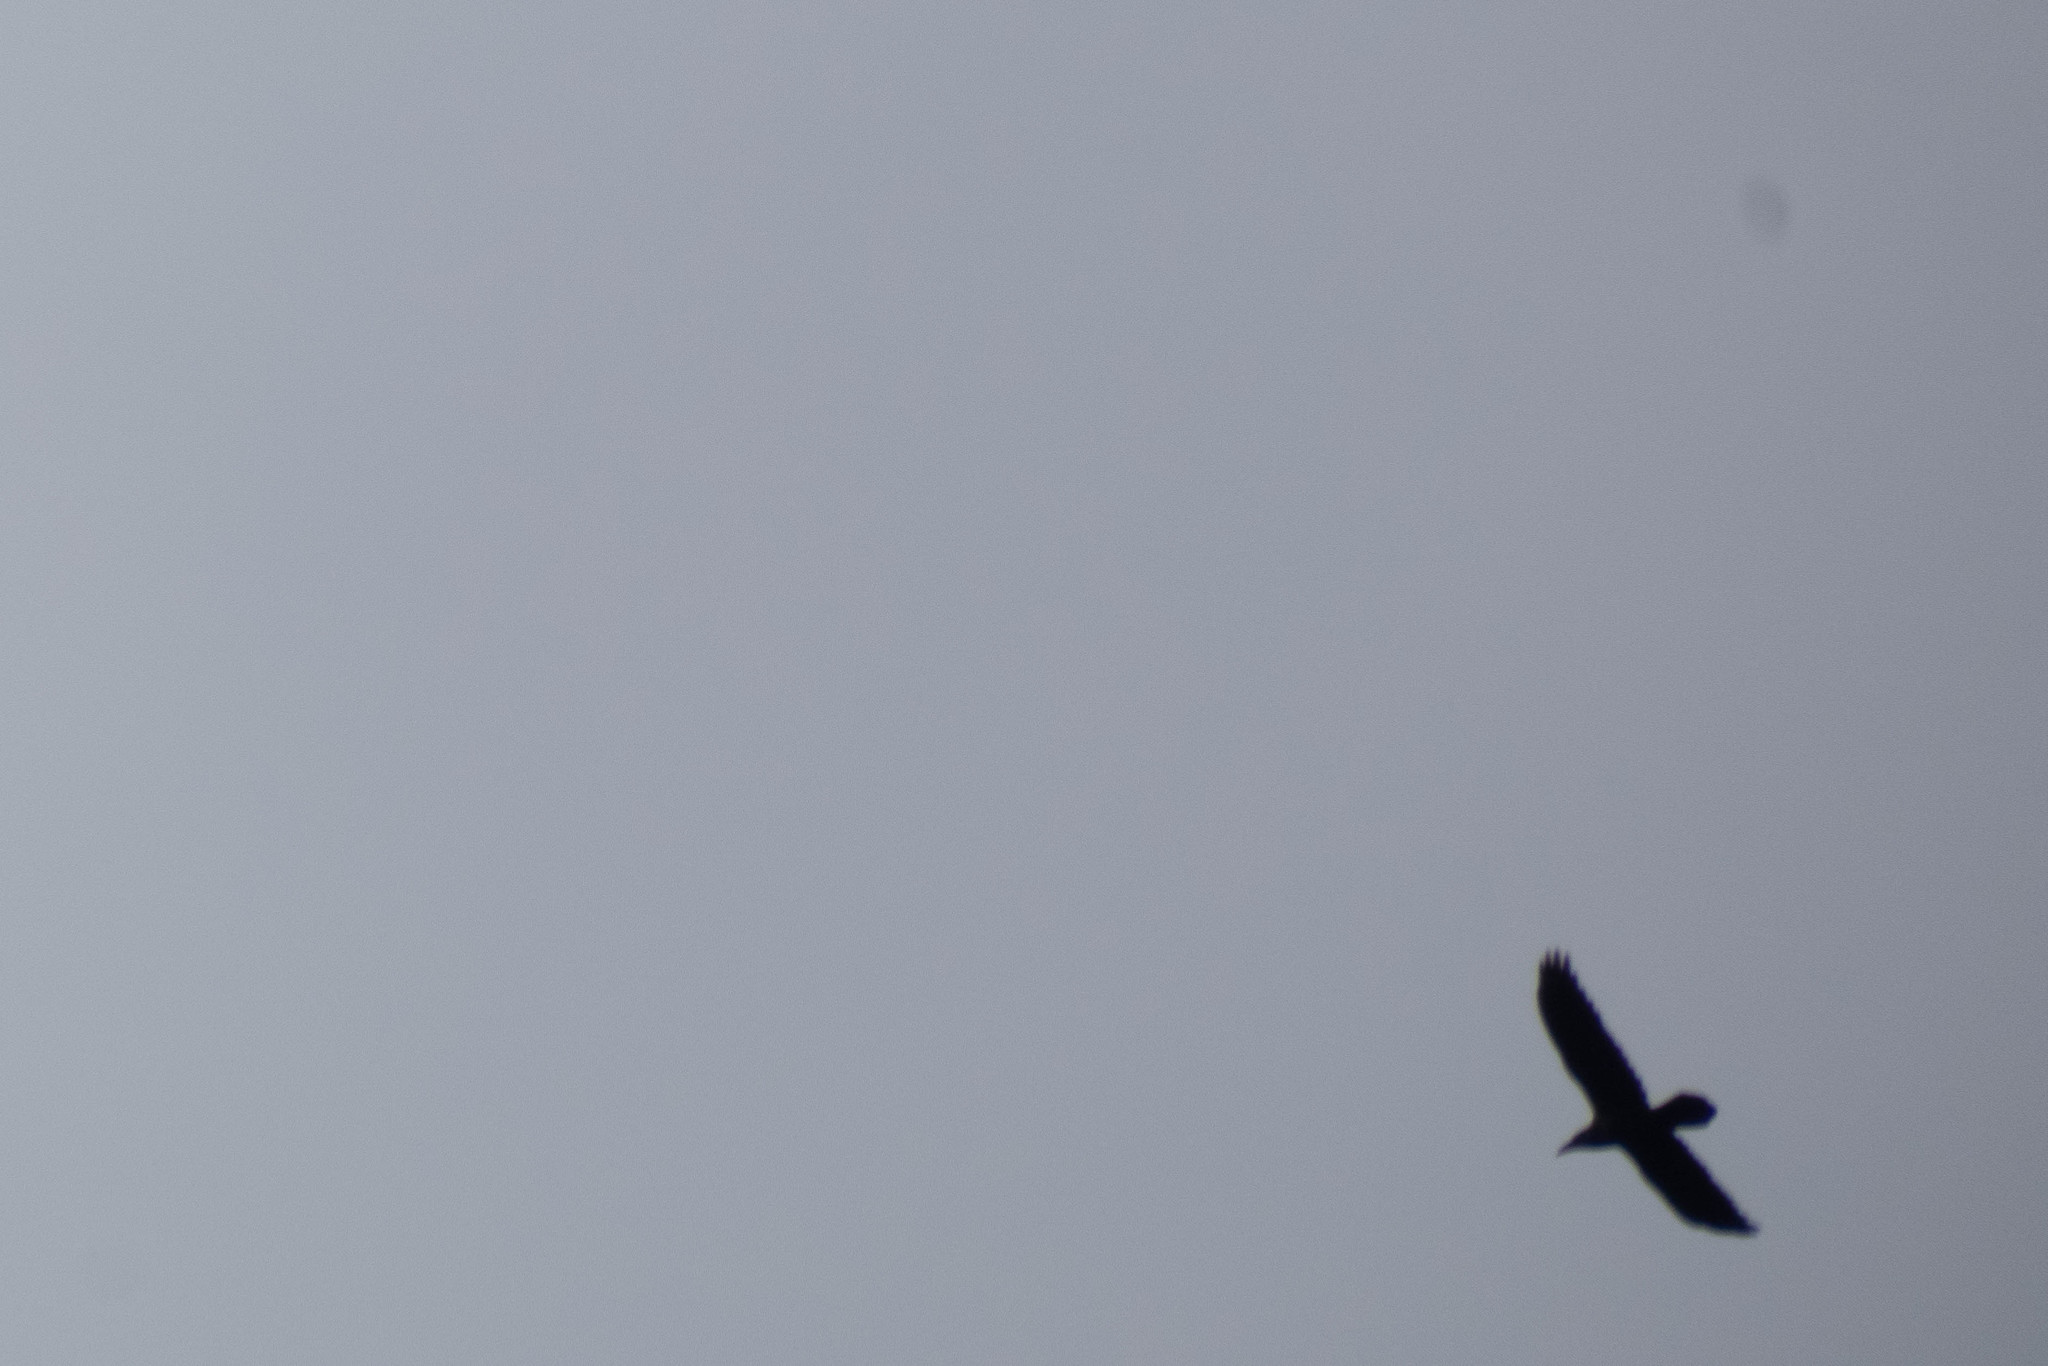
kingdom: Animalia
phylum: Chordata
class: Aves
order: Passeriformes
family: Corvidae
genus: Corvus
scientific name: Corvus corax
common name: Common raven
